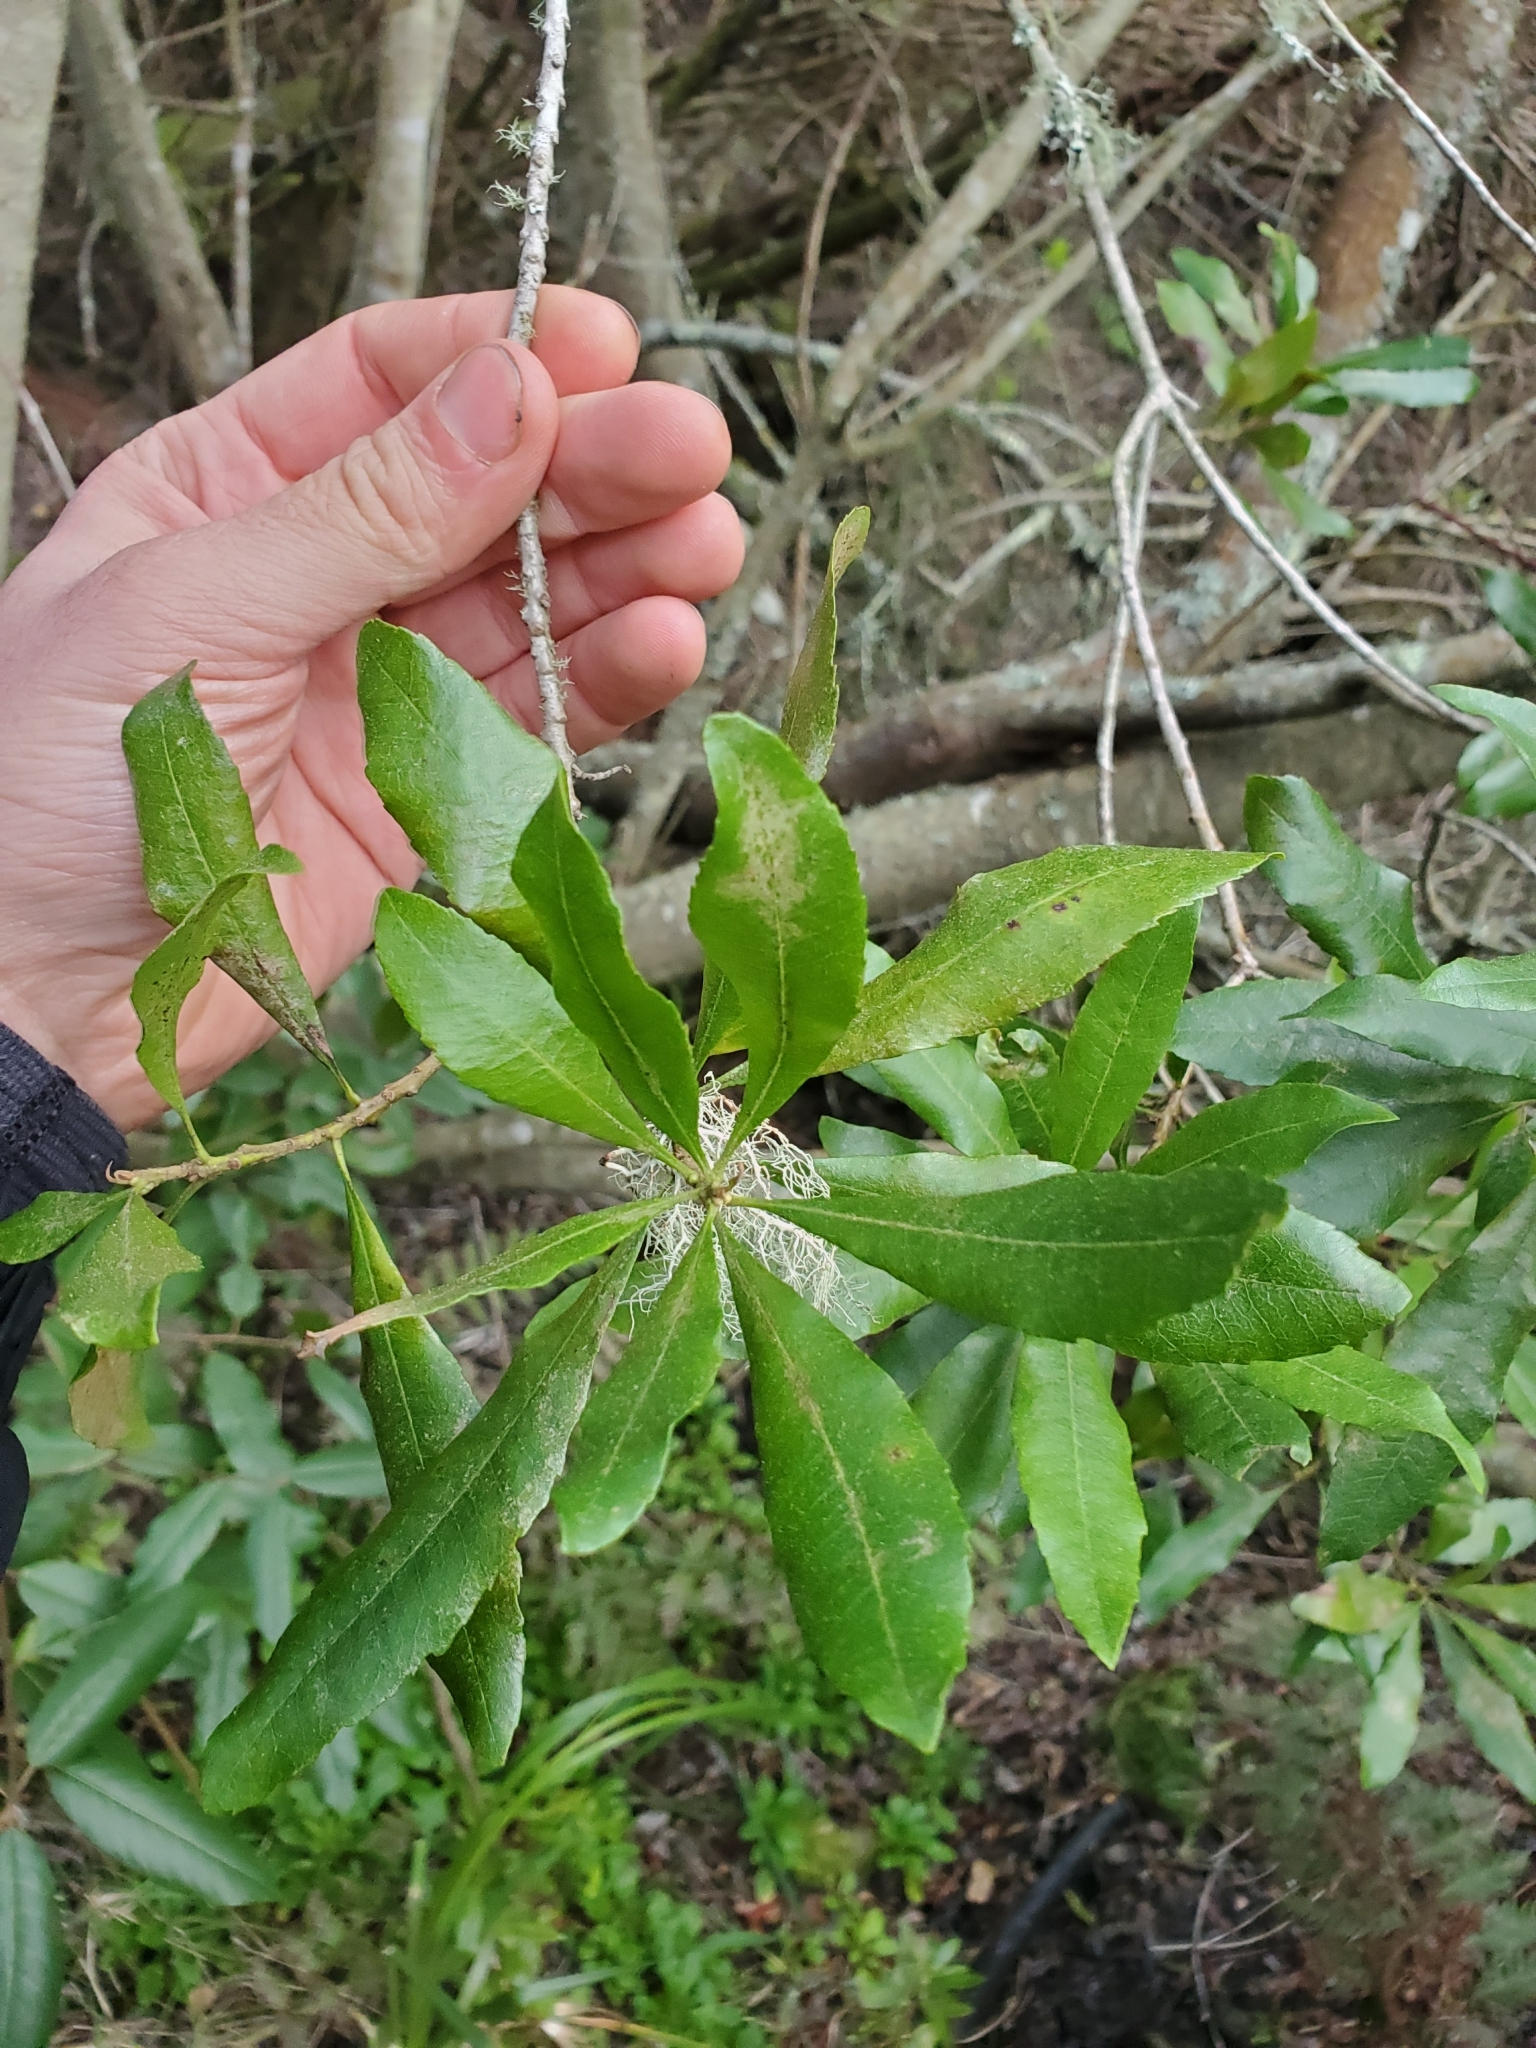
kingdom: Plantae
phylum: Tracheophyta
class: Magnoliopsida
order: Fagales
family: Myricaceae
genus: Morella
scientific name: Morella californica
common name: California wax-myrtle
